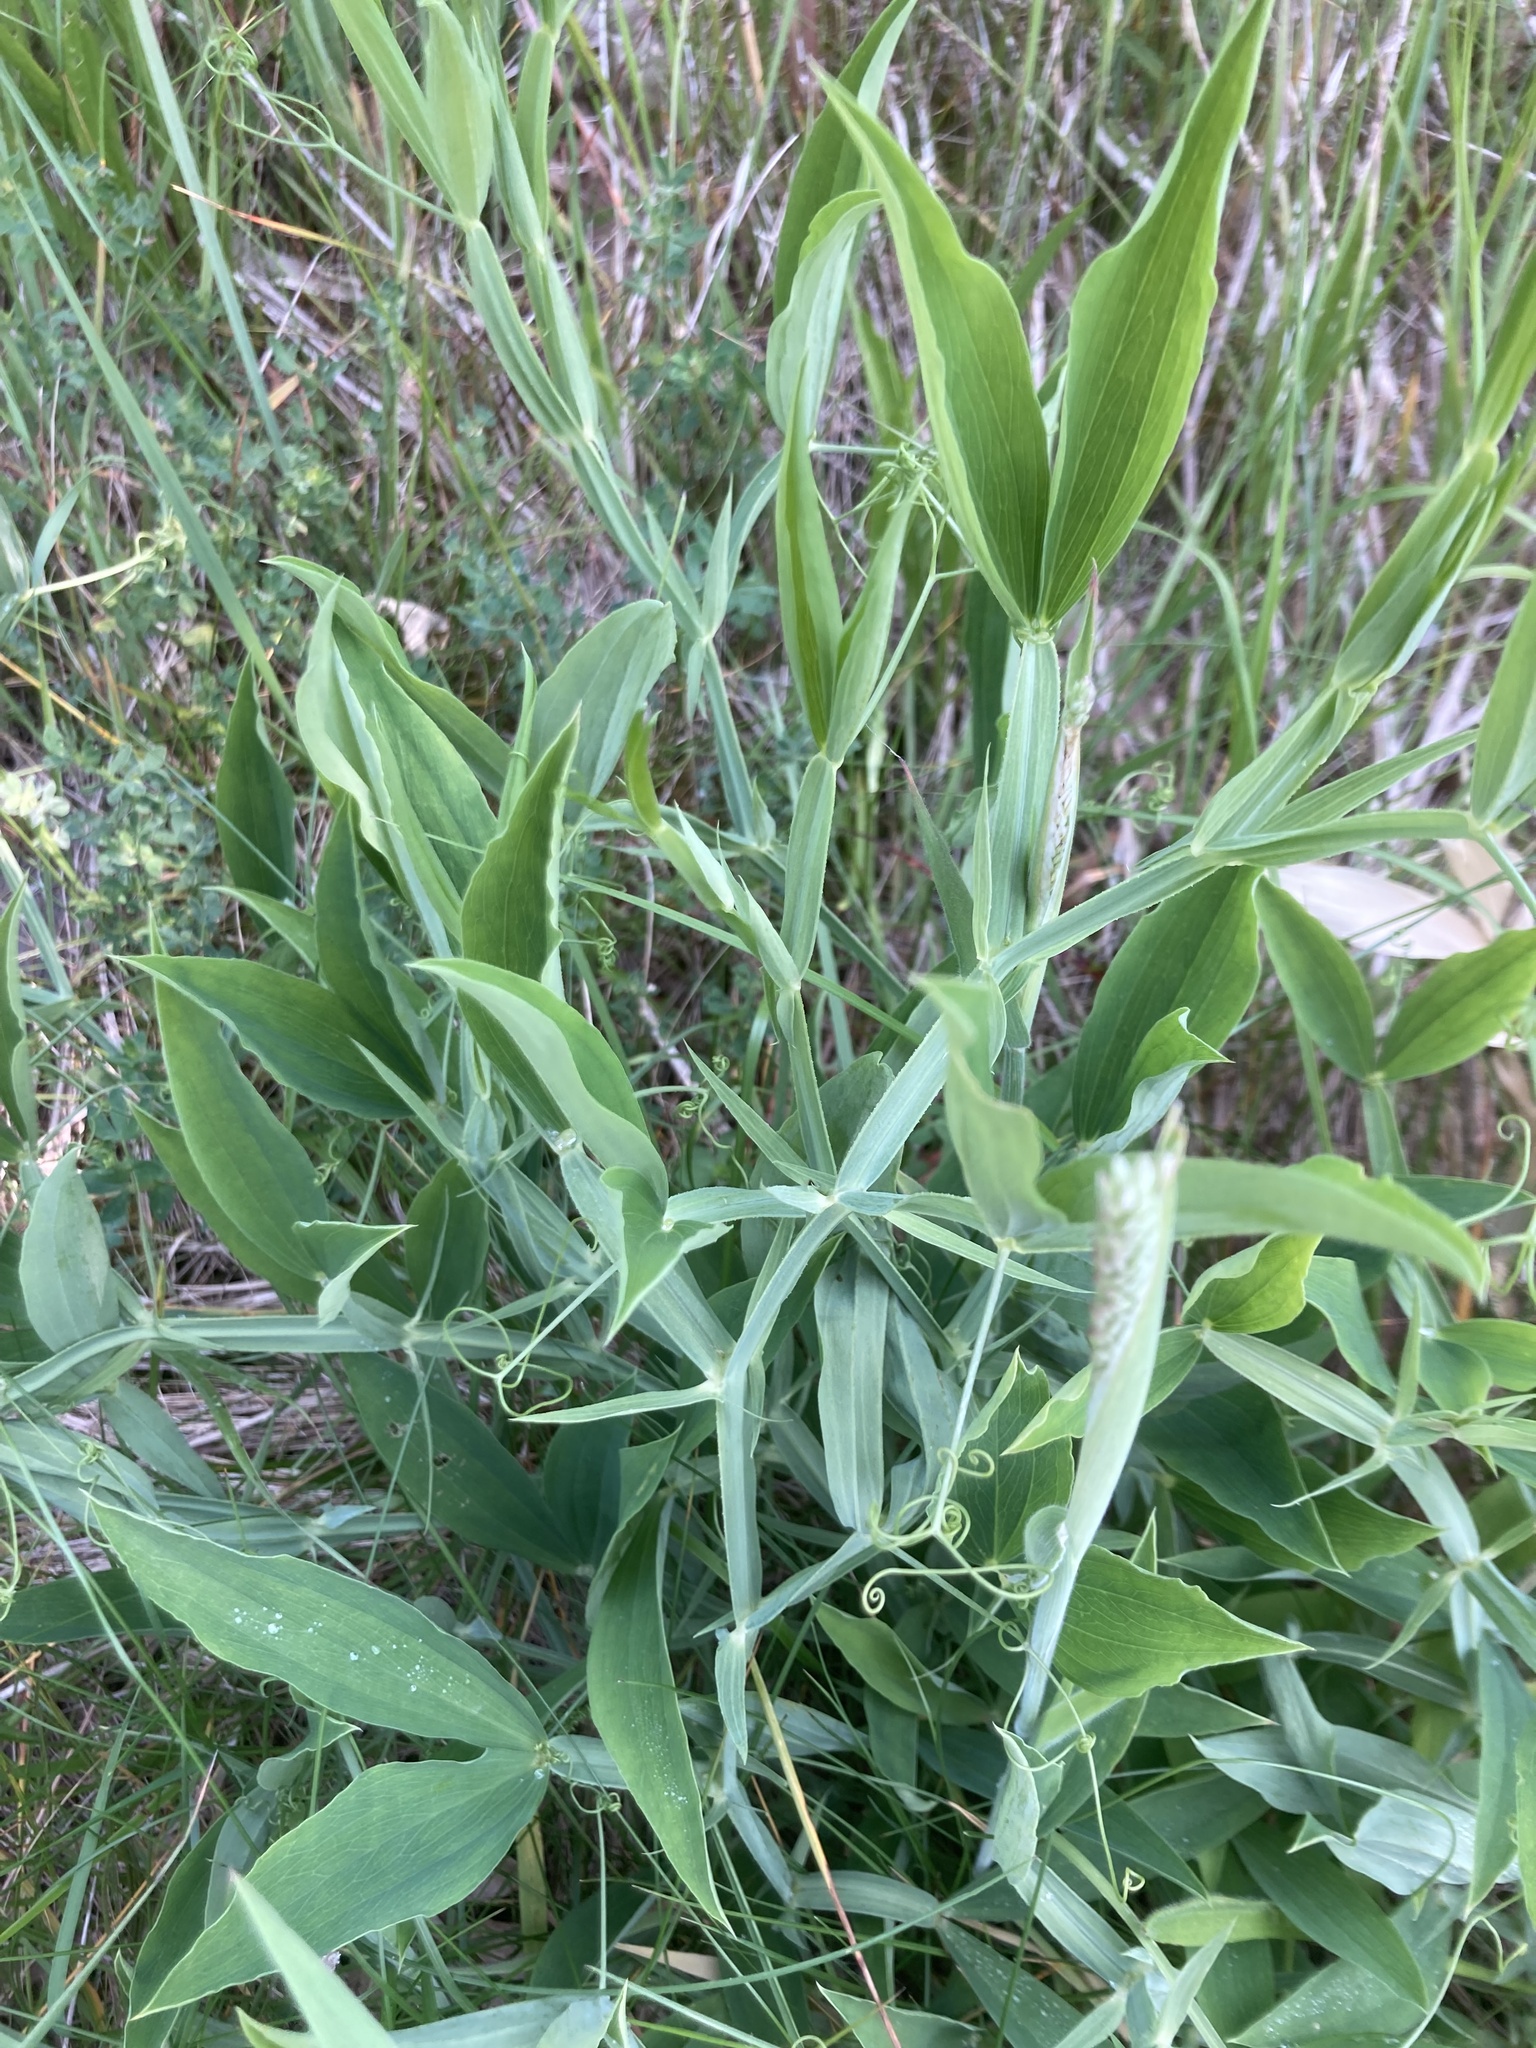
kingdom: Plantae
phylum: Tracheophyta
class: Magnoliopsida
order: Fabales
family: Fabaceae
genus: Lathyrus
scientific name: Lathyrus latifolius
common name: Perennial pea
